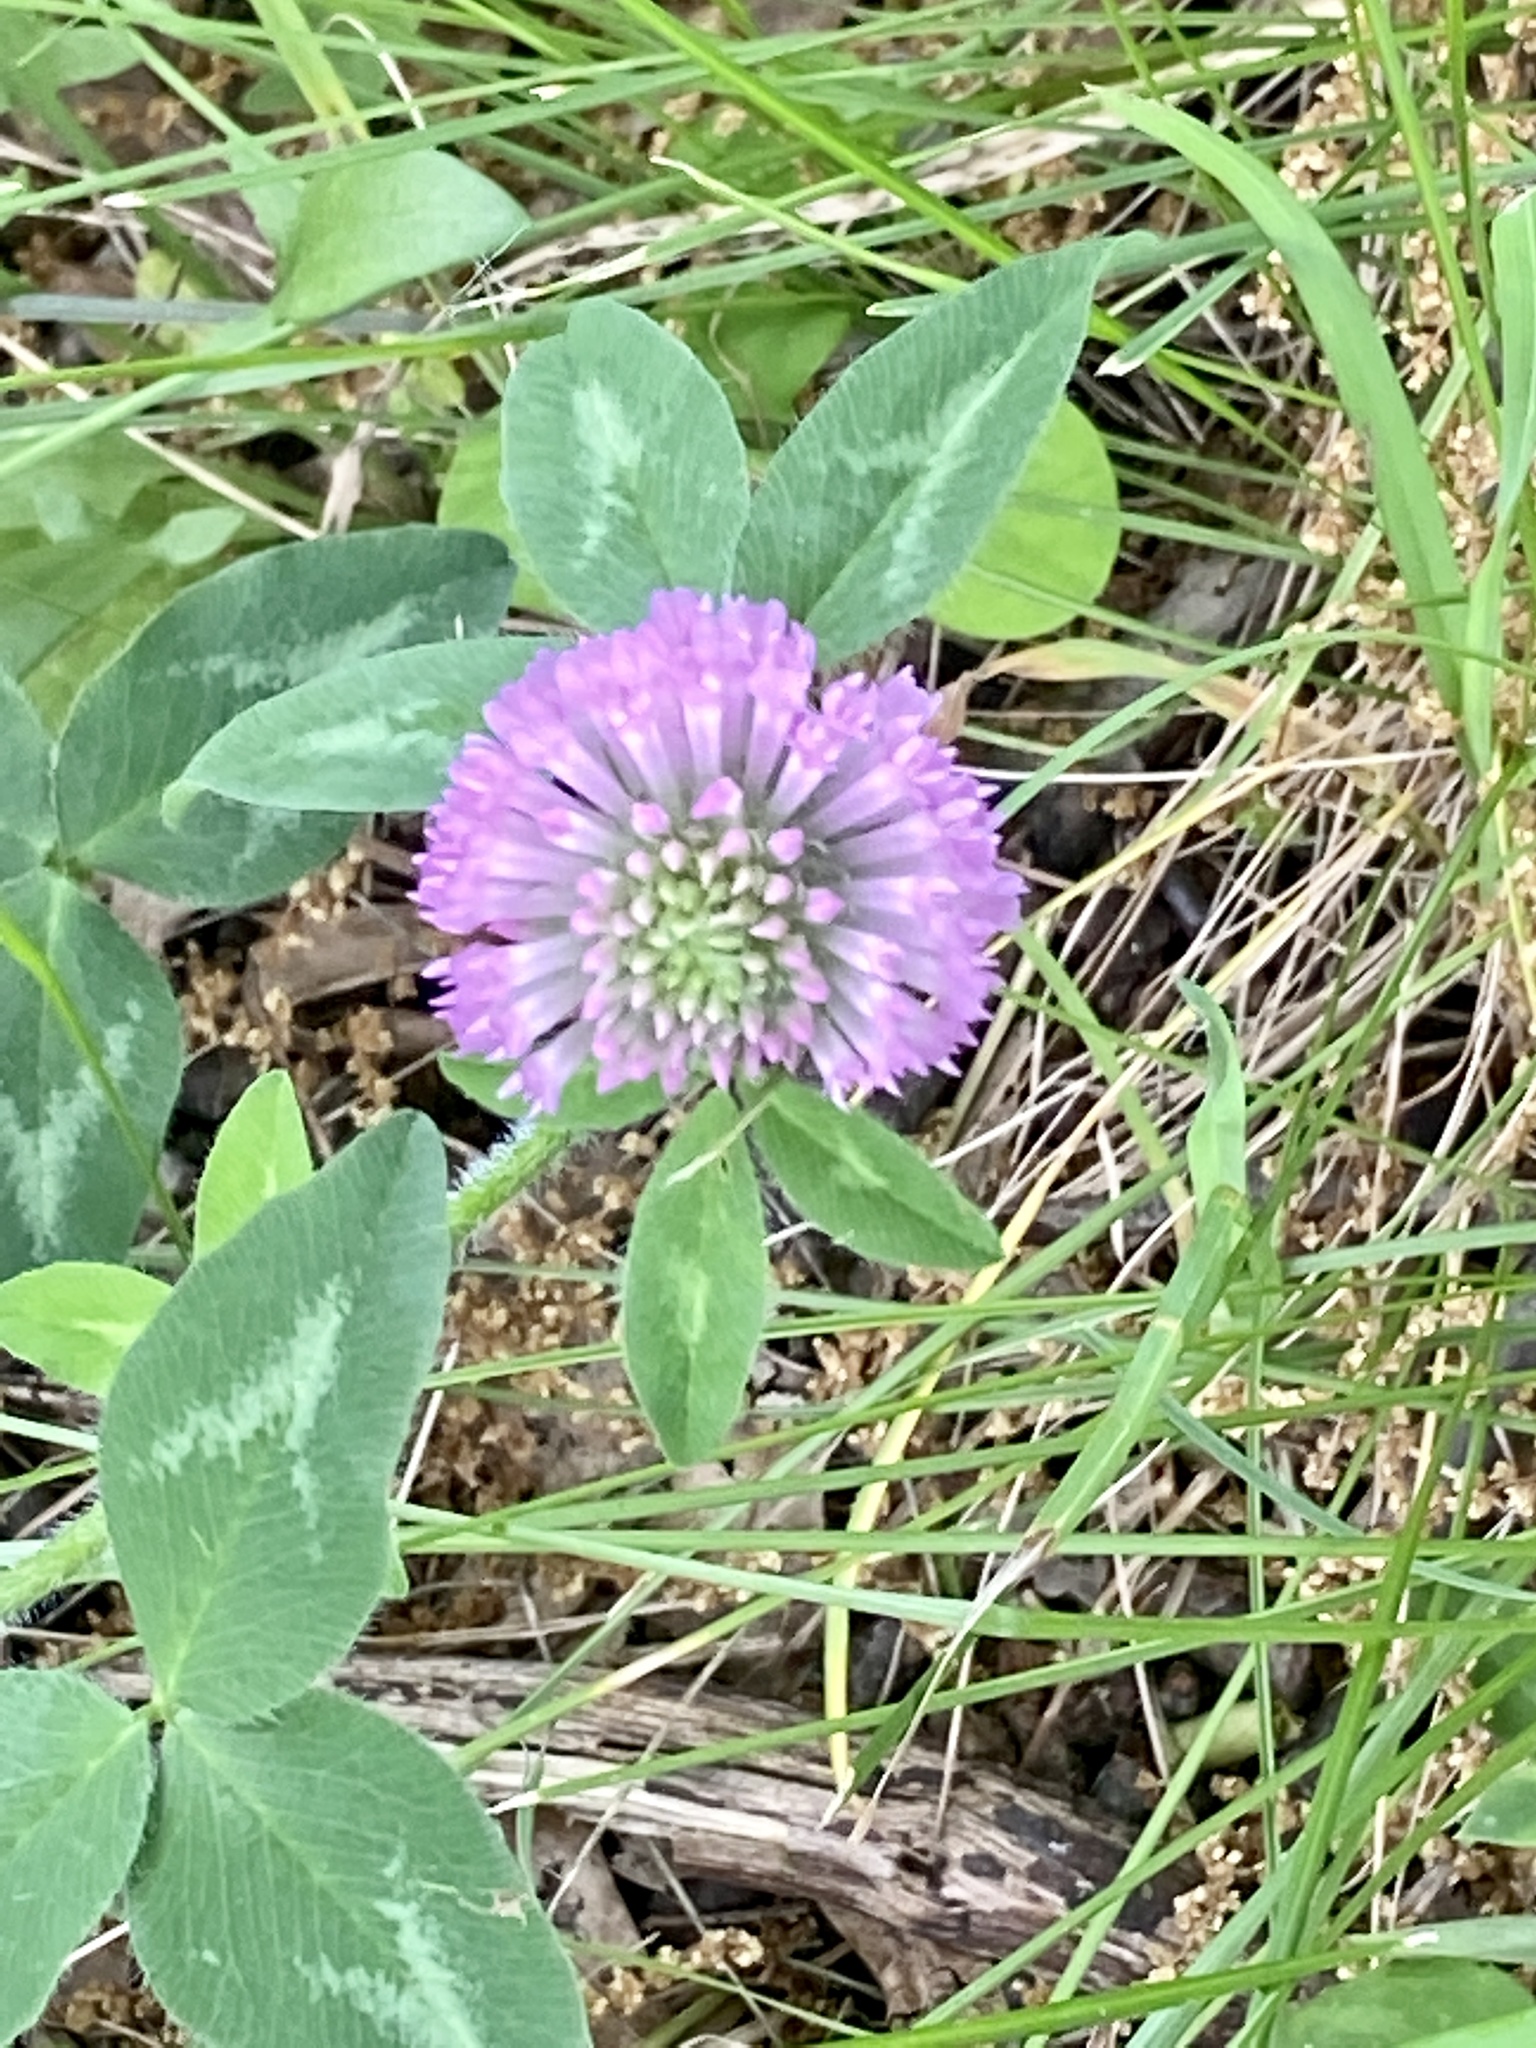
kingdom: Plantae
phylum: Tracheophyta
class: Magnoliopsida
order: Fabales
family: Fabaceae
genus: Trifolium
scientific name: Trifolium pratense
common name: Red clover
